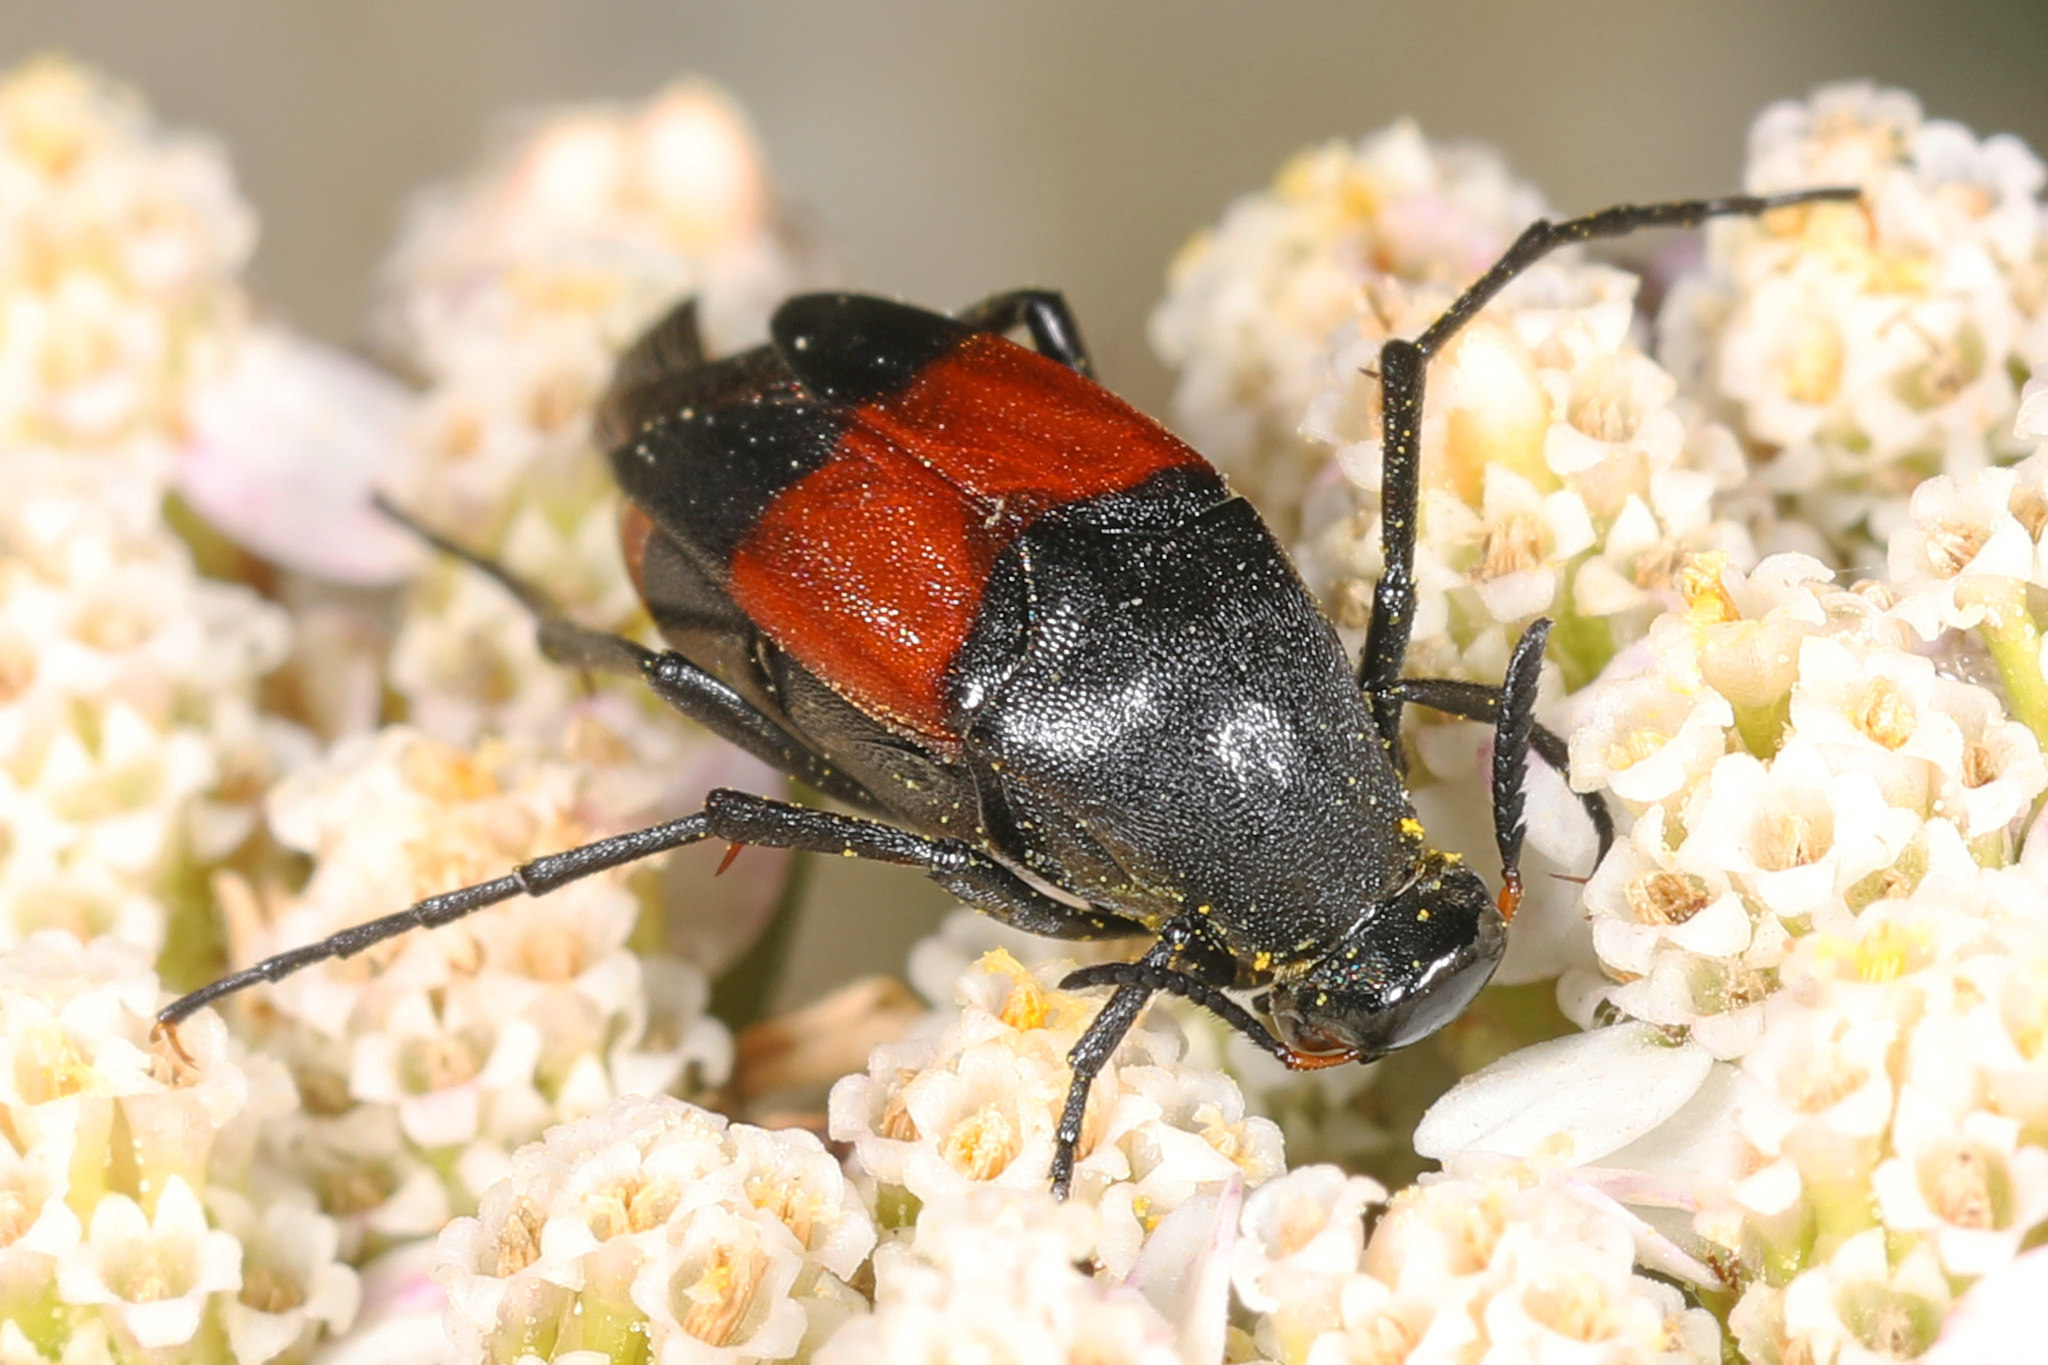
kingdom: Animalia
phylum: Arthropoda
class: Insecta
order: Coleoptera
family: Ripiphoridae
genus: Macrosiagon
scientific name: Macrosiagon cruentum
